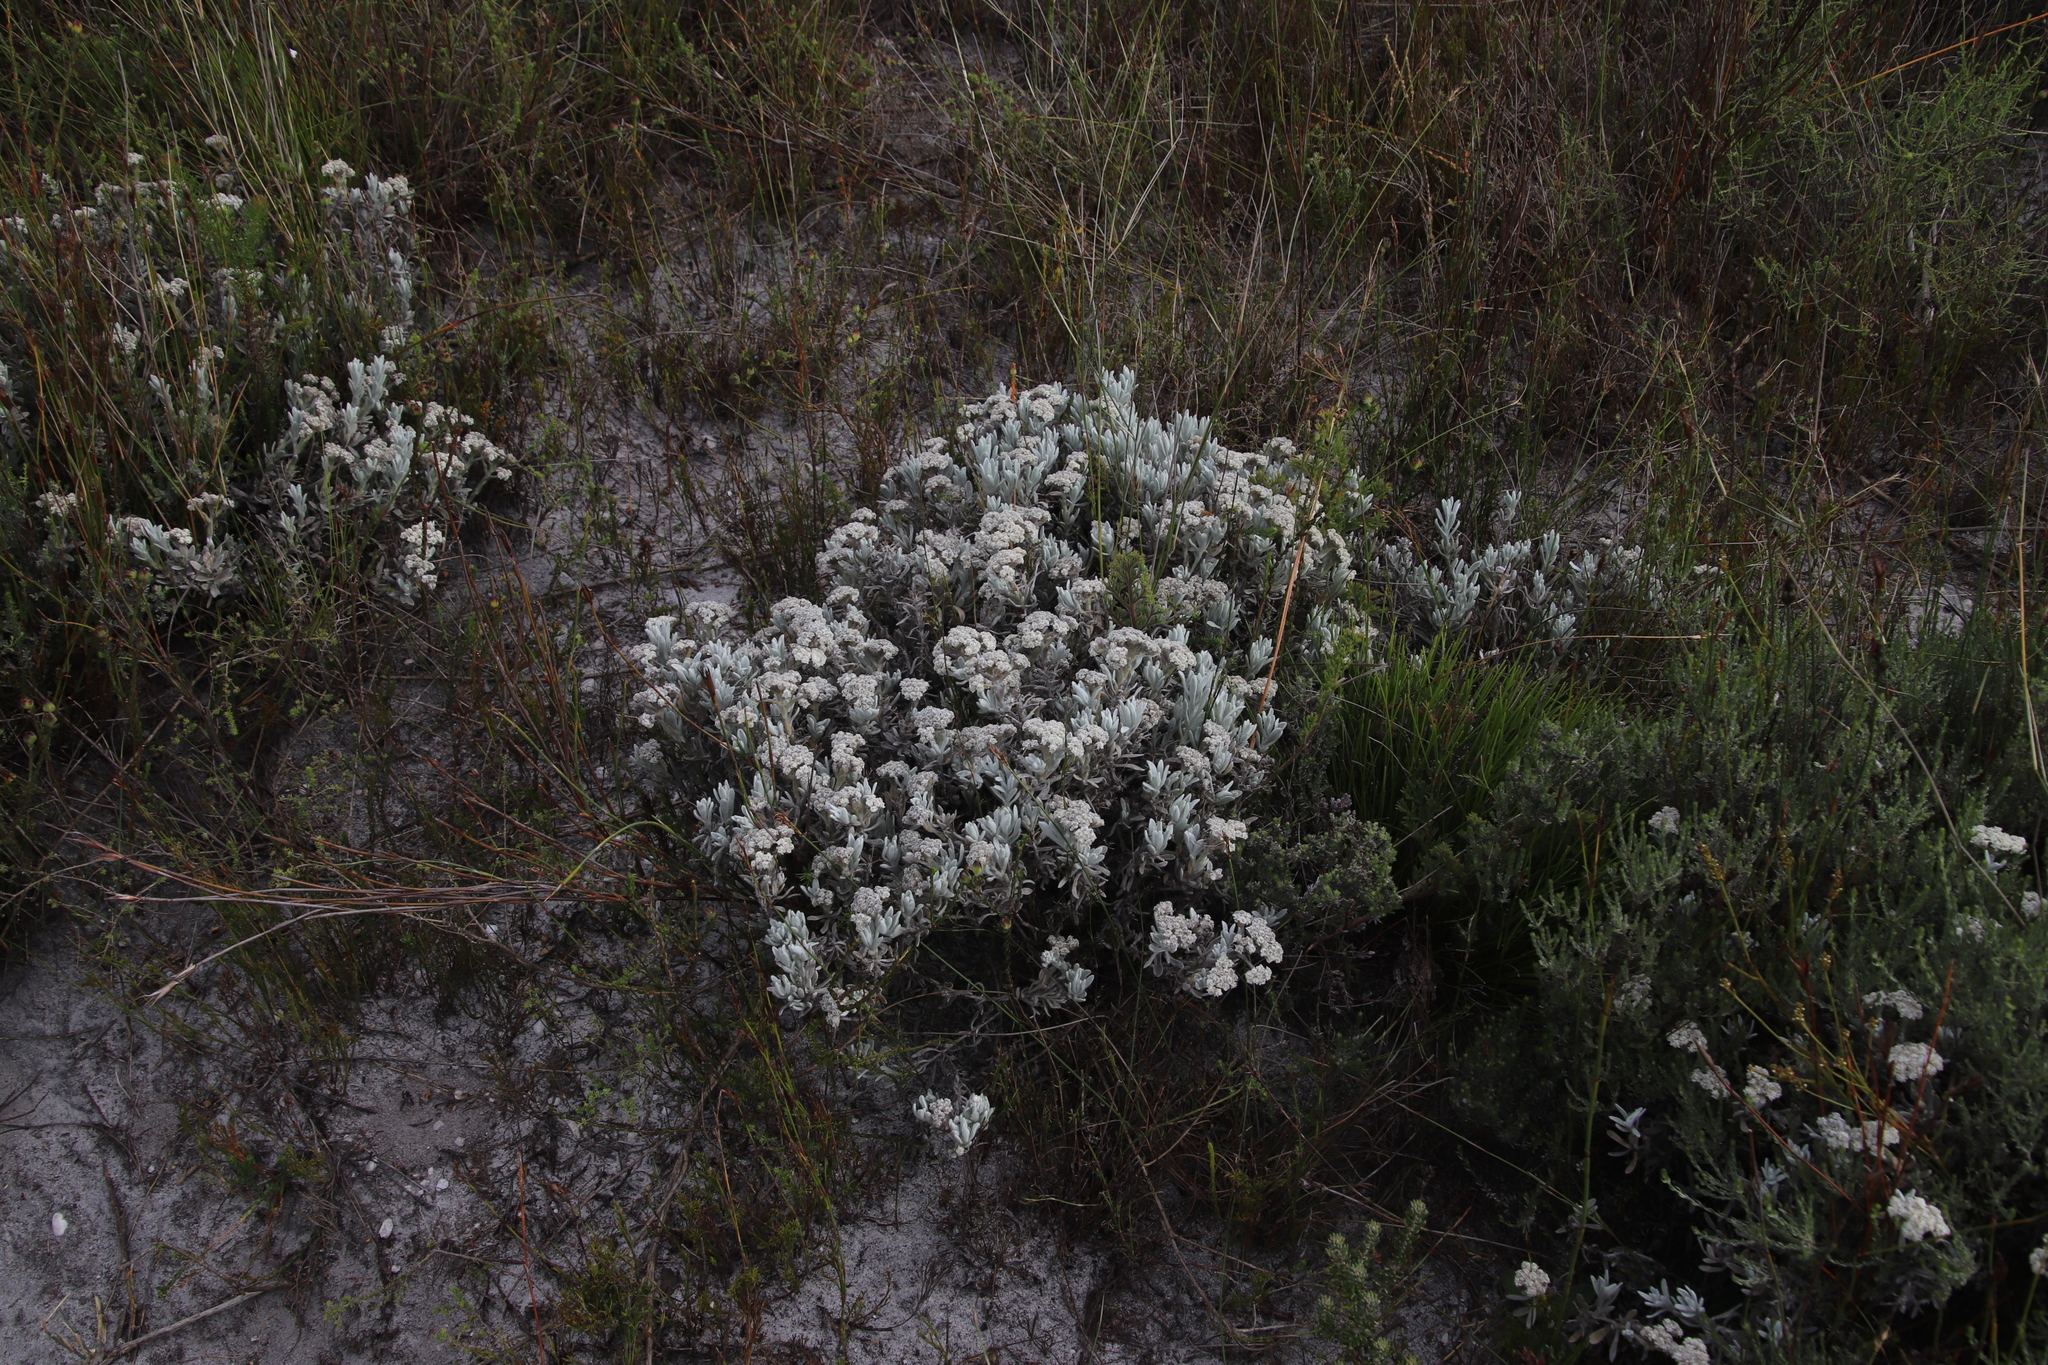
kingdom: Plantae
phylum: Tracheophyta
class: Magnoliopsida
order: Asterales
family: Asteraceae
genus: Petalacte
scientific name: Petalacte coronata
